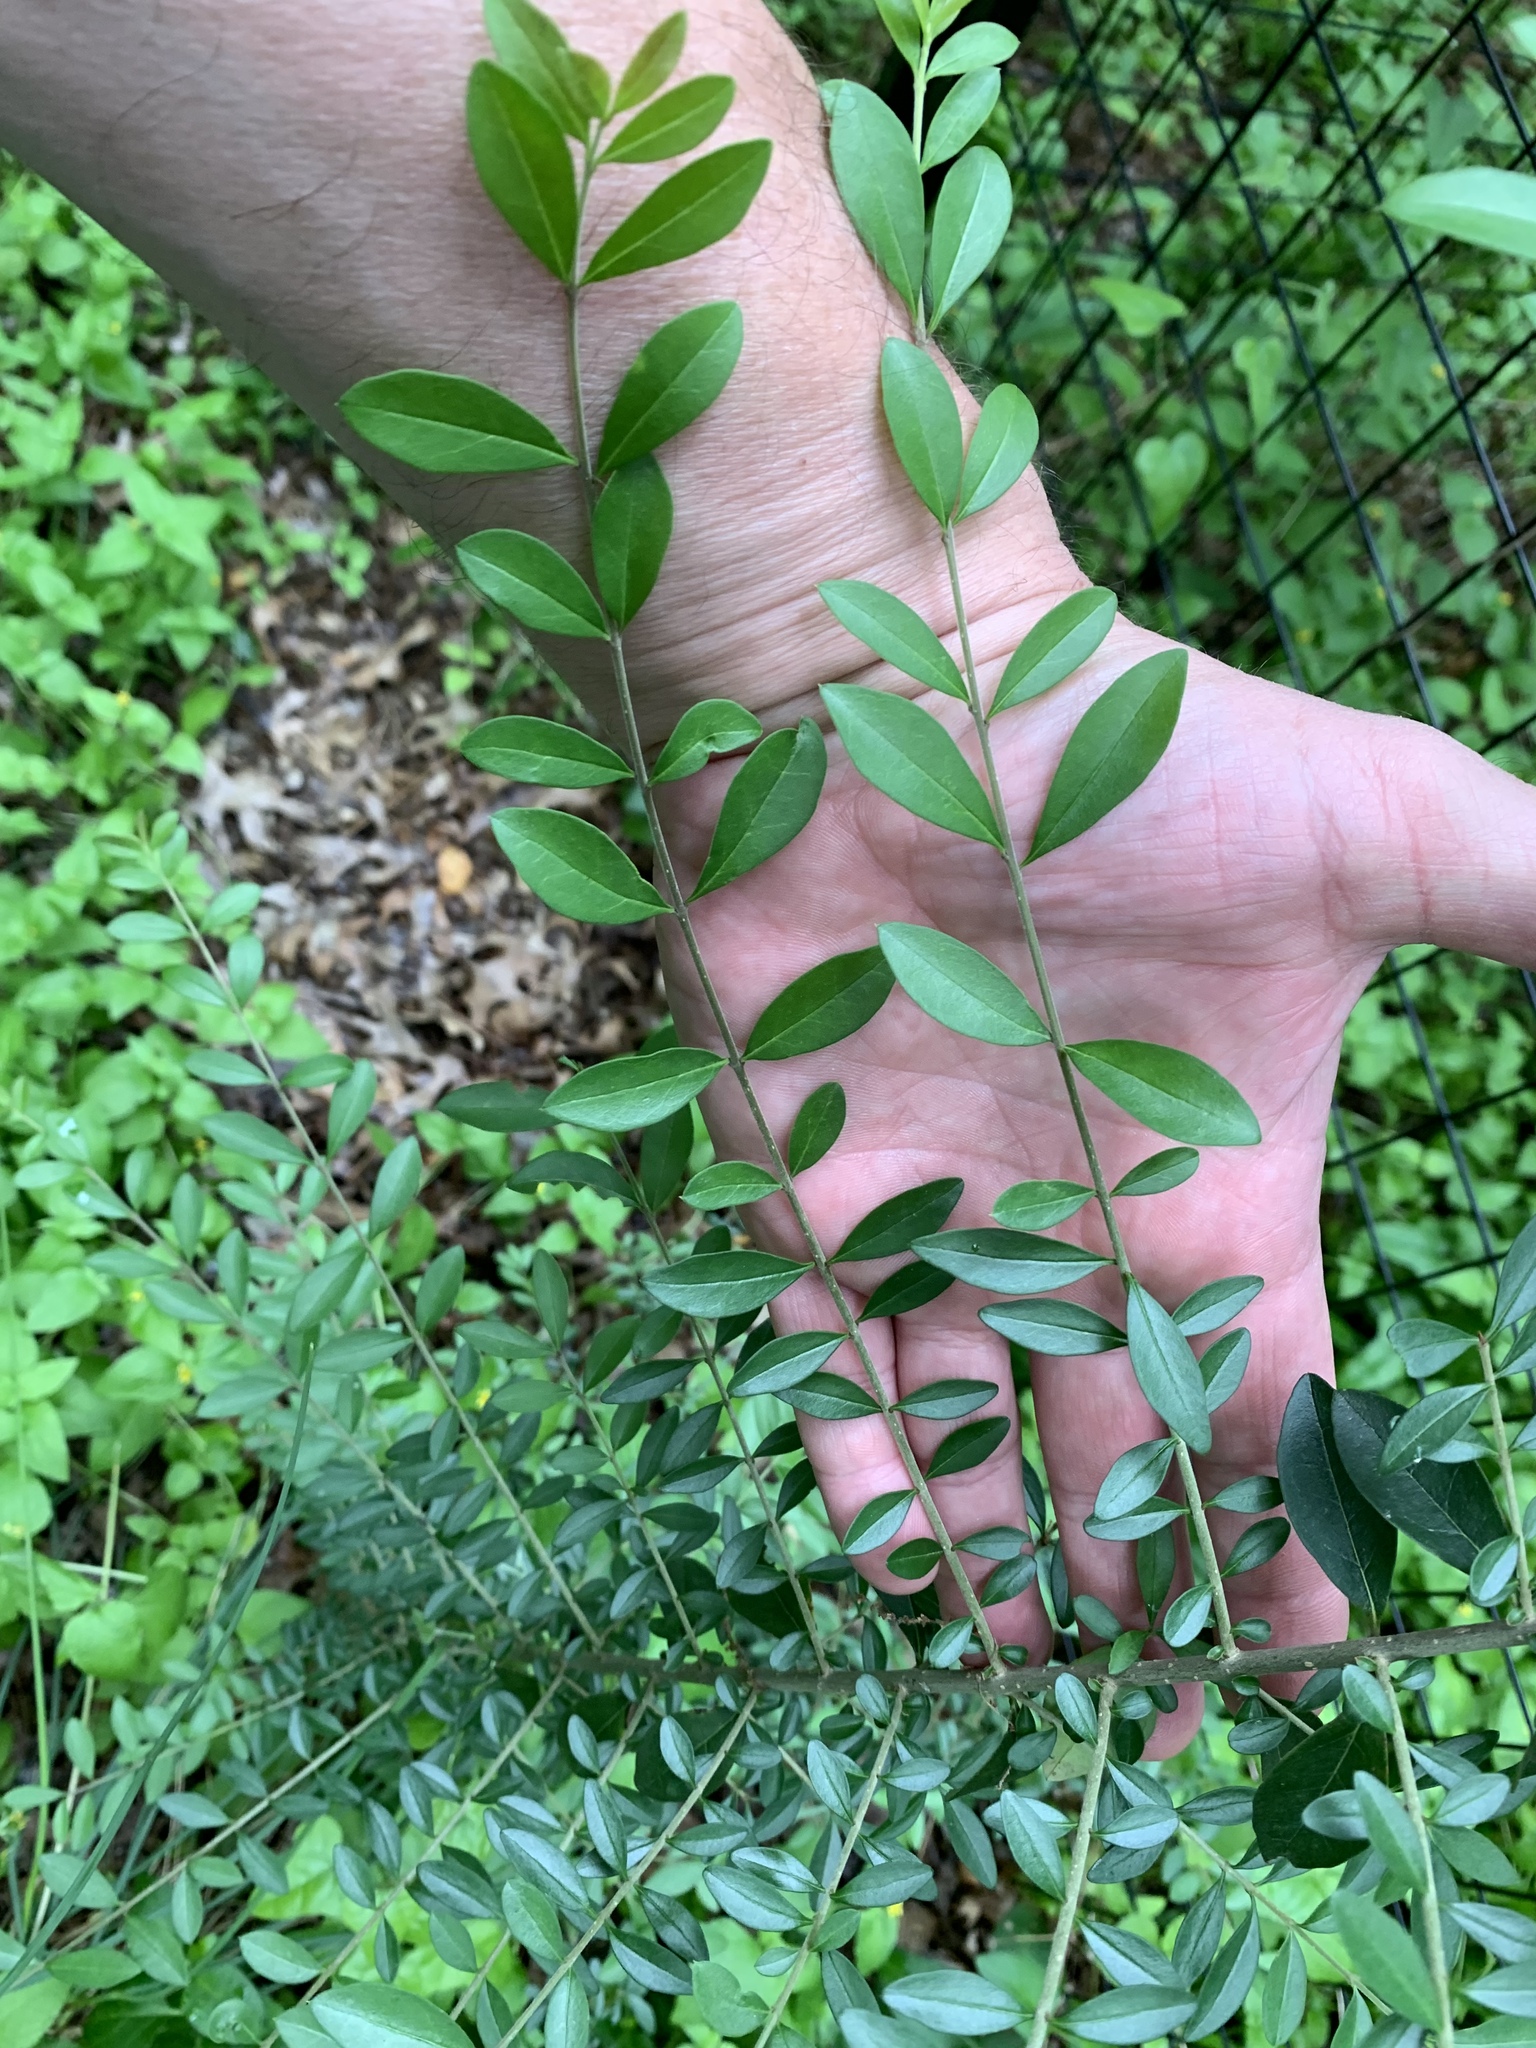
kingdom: Plantae
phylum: Tracheophyta
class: Magnoliopsida
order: Lamiales
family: Oleaceae
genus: Ligustrum
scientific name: Ligustrum quihoui
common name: Waxyleaf privet
